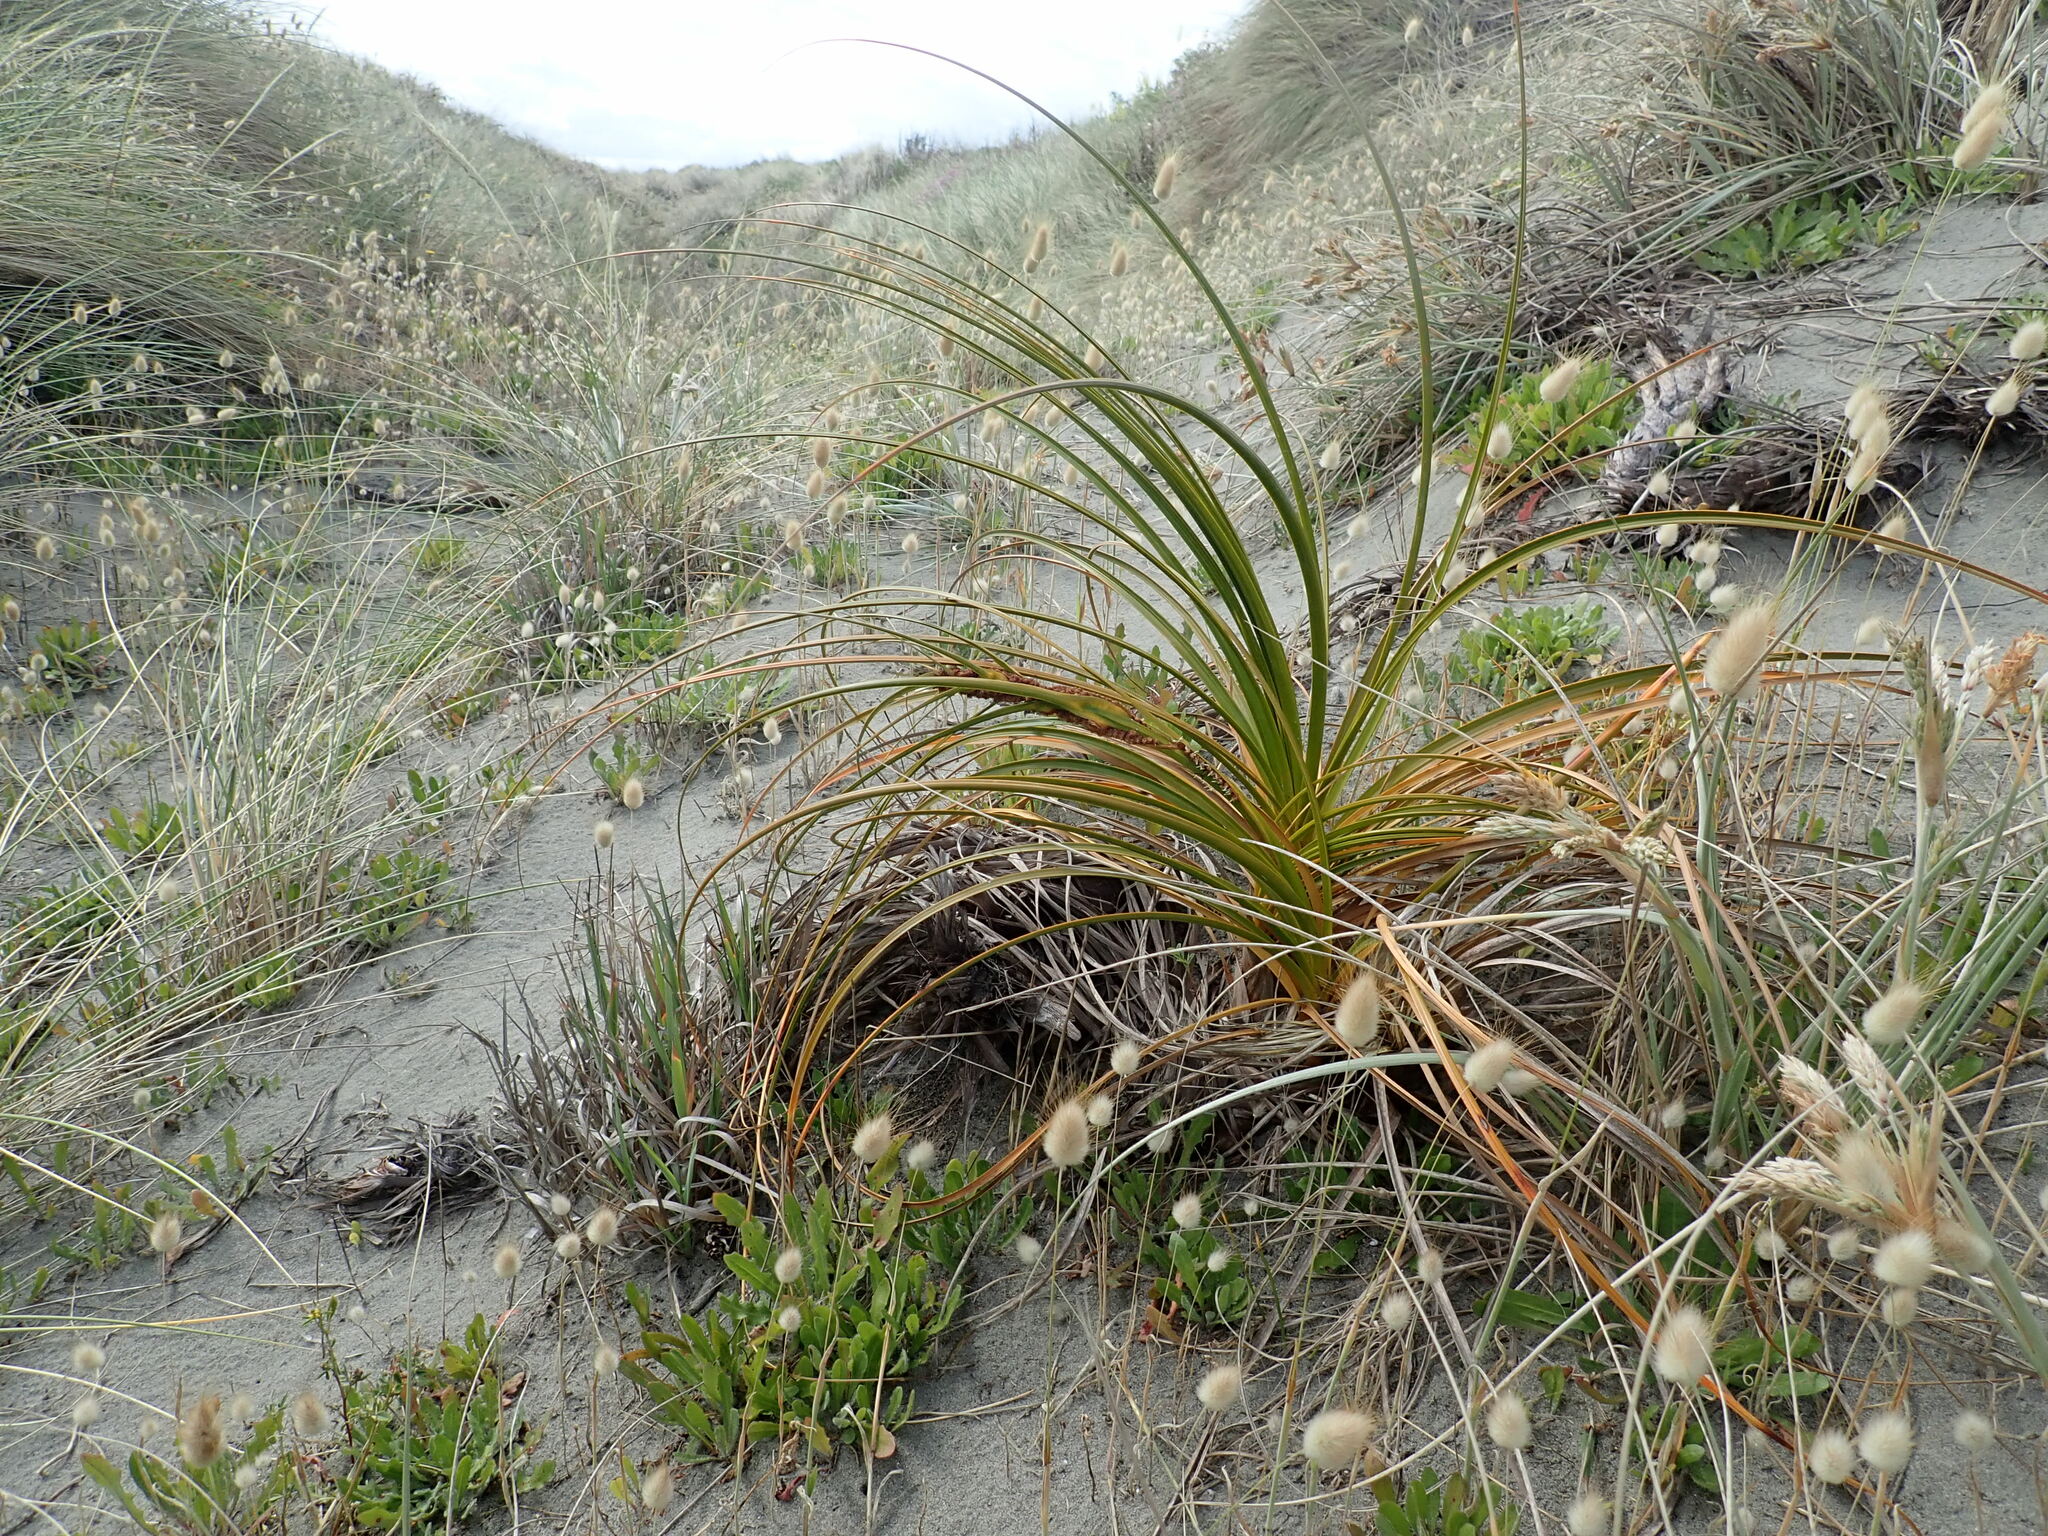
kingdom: Plantae
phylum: Tracheophyta
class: Liliopsida
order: Poales
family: Cyperaceae
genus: Ficinia
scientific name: Ficinia spiralis
